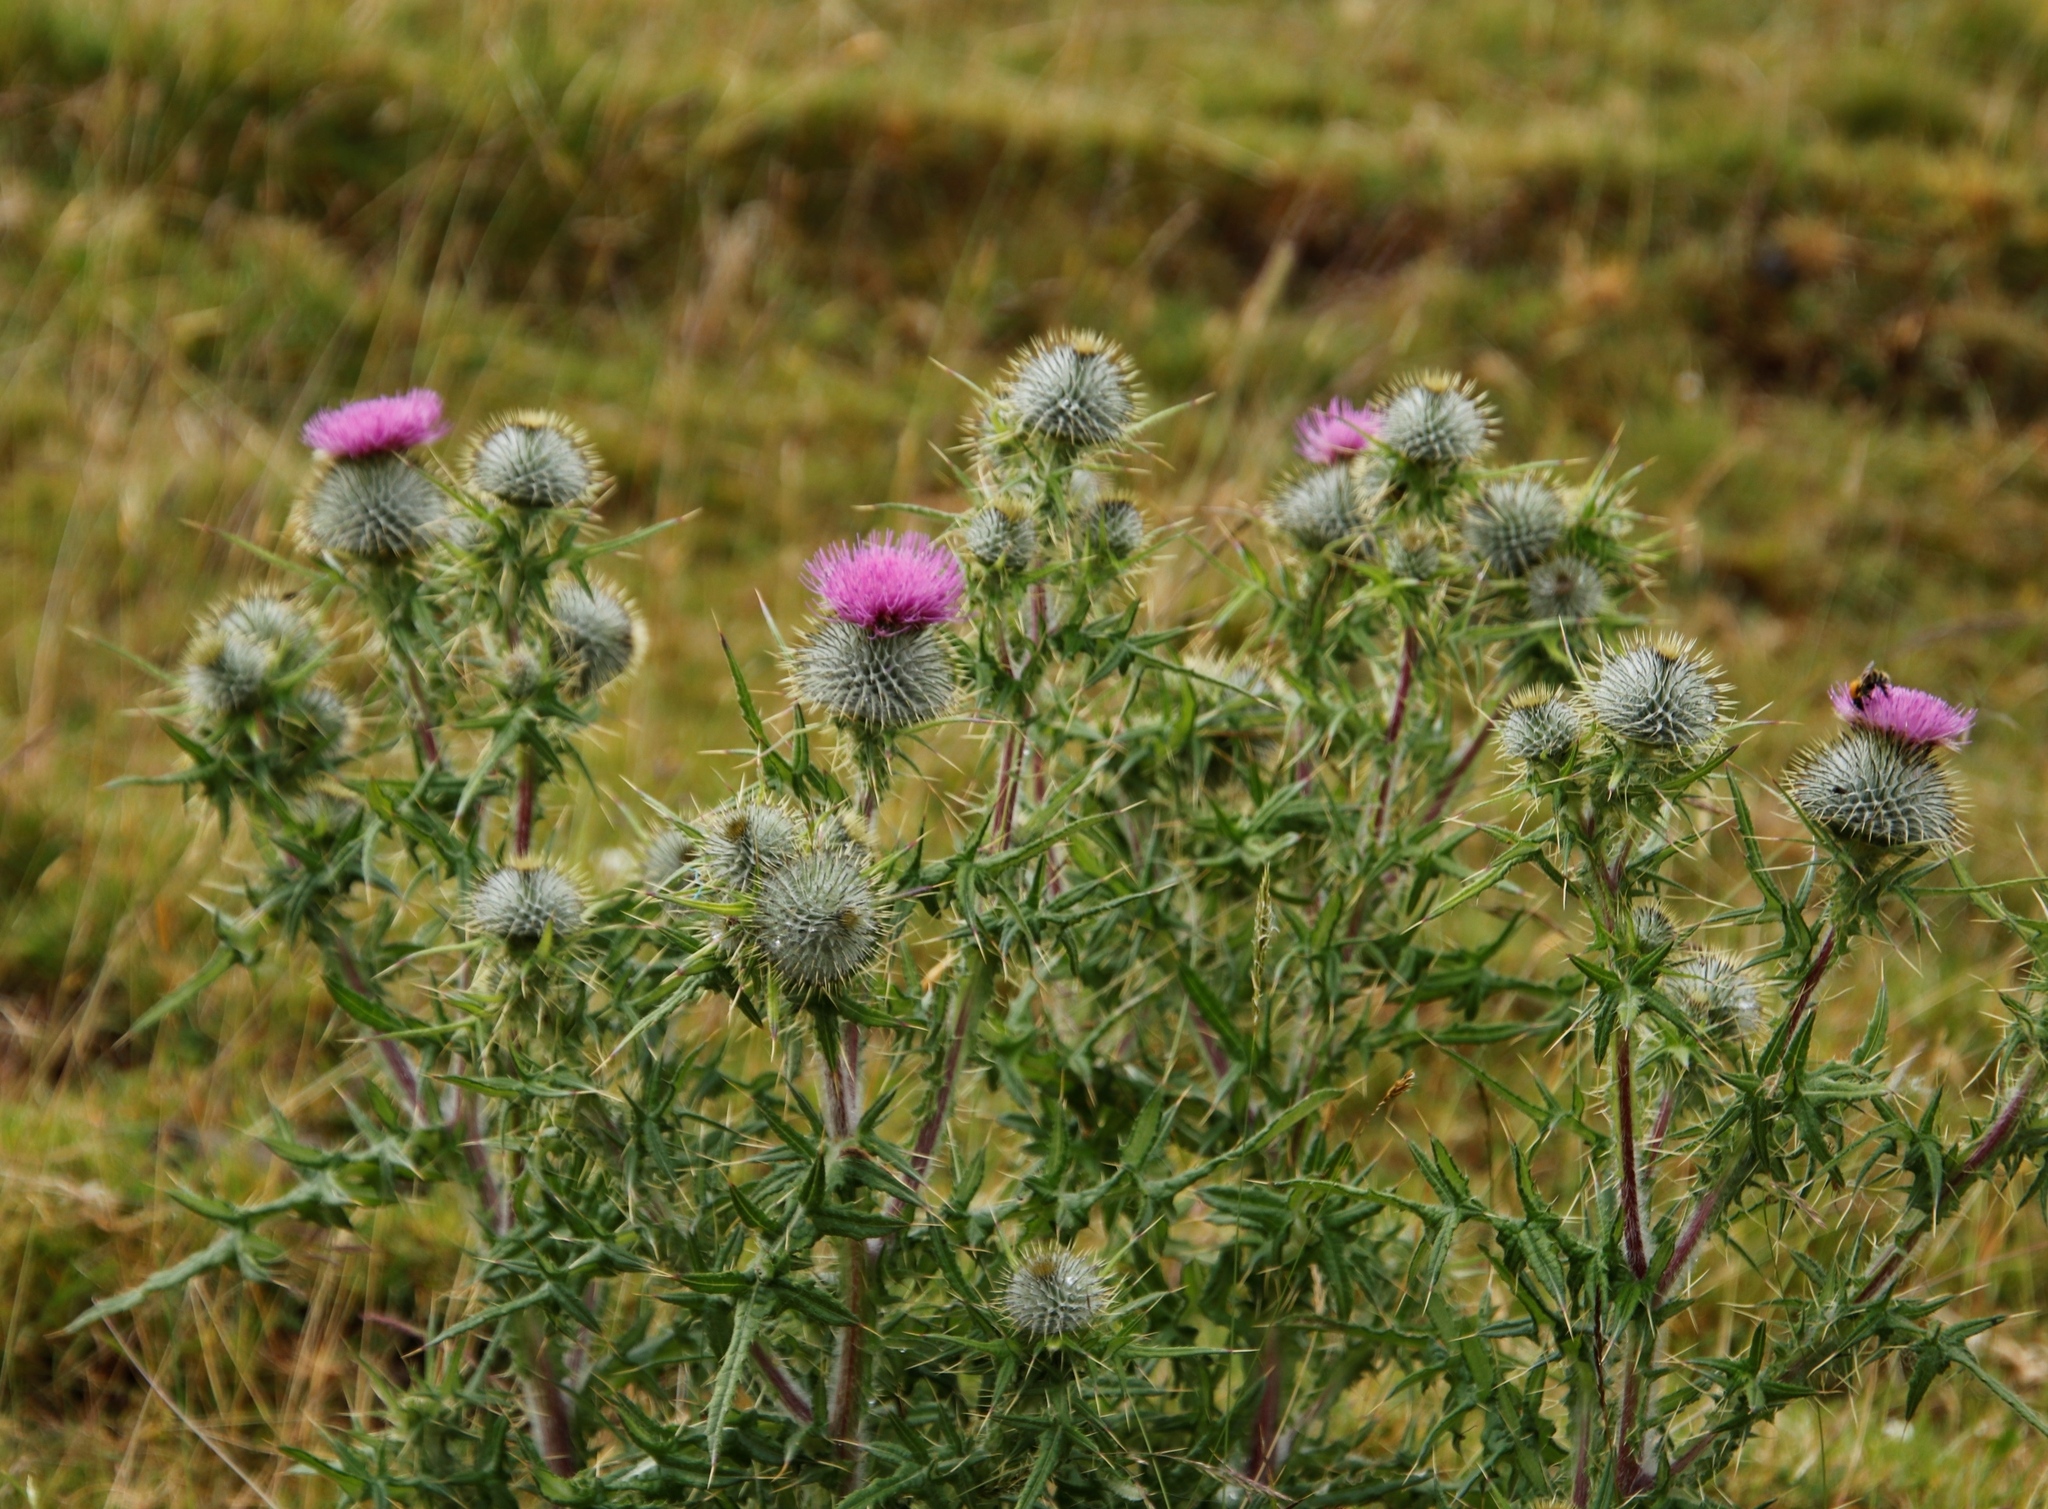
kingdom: Plantae
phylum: Tracheophyta
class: Magnoliopsida
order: Asterales
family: Asteraceae
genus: Cirsium
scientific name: Cirsium vulgare
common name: Bull thistle
